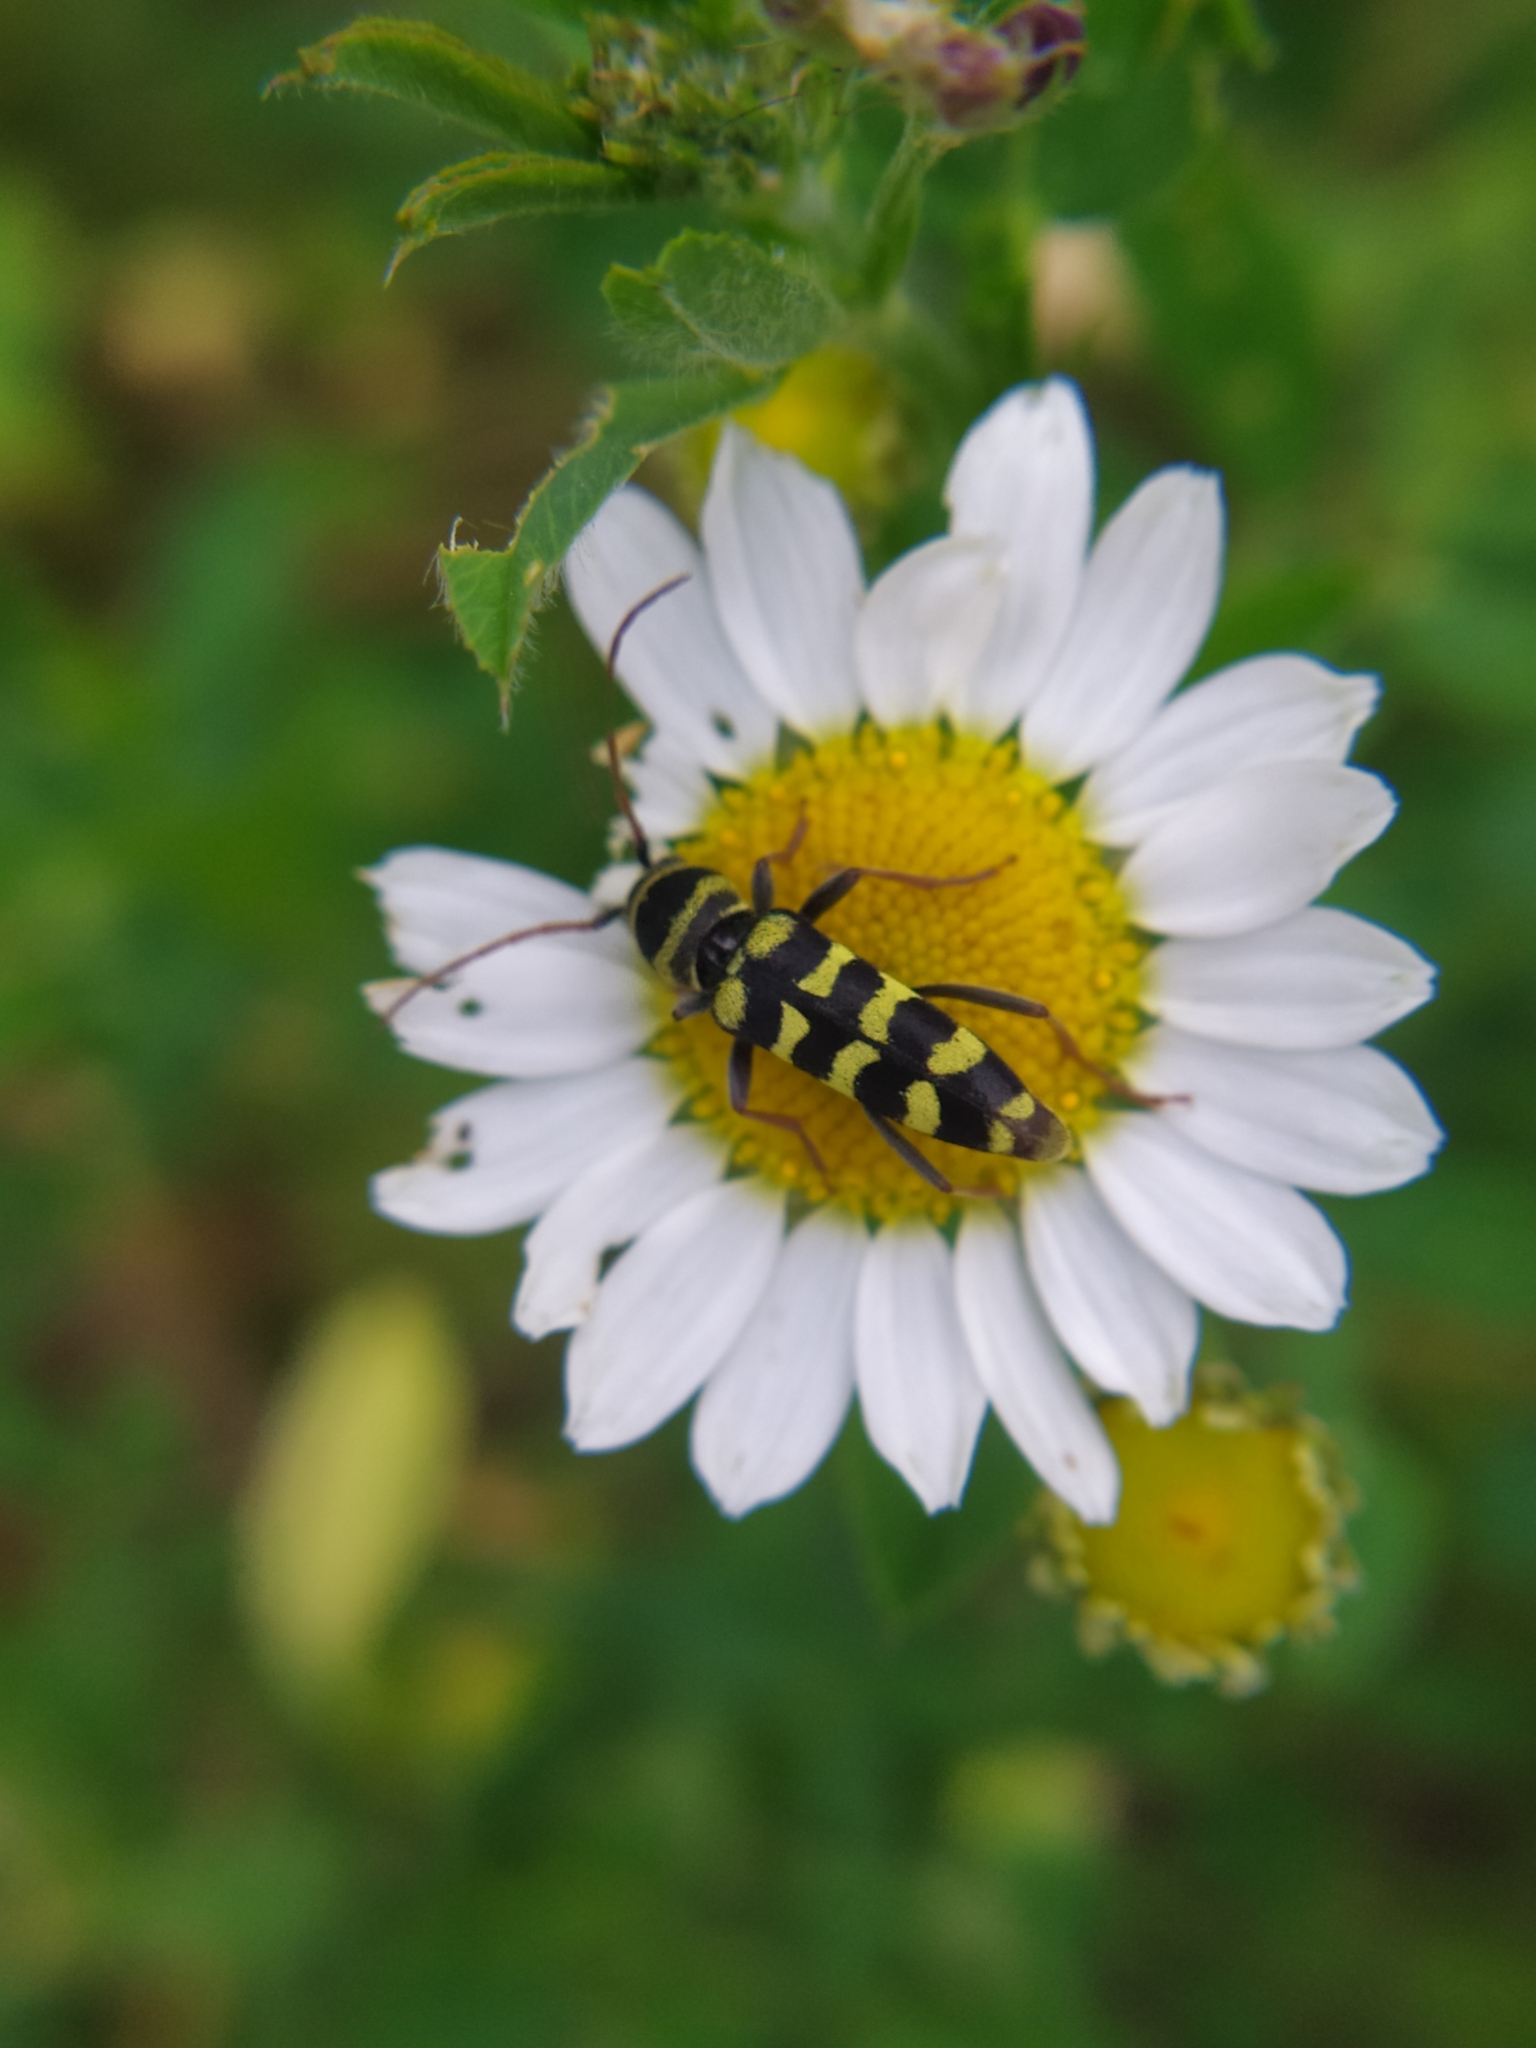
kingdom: Animalia
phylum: Arthropoda
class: Insecta
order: Coleoptera
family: Cerambycidae
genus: Plagionotus
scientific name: Plagionotus floralis
